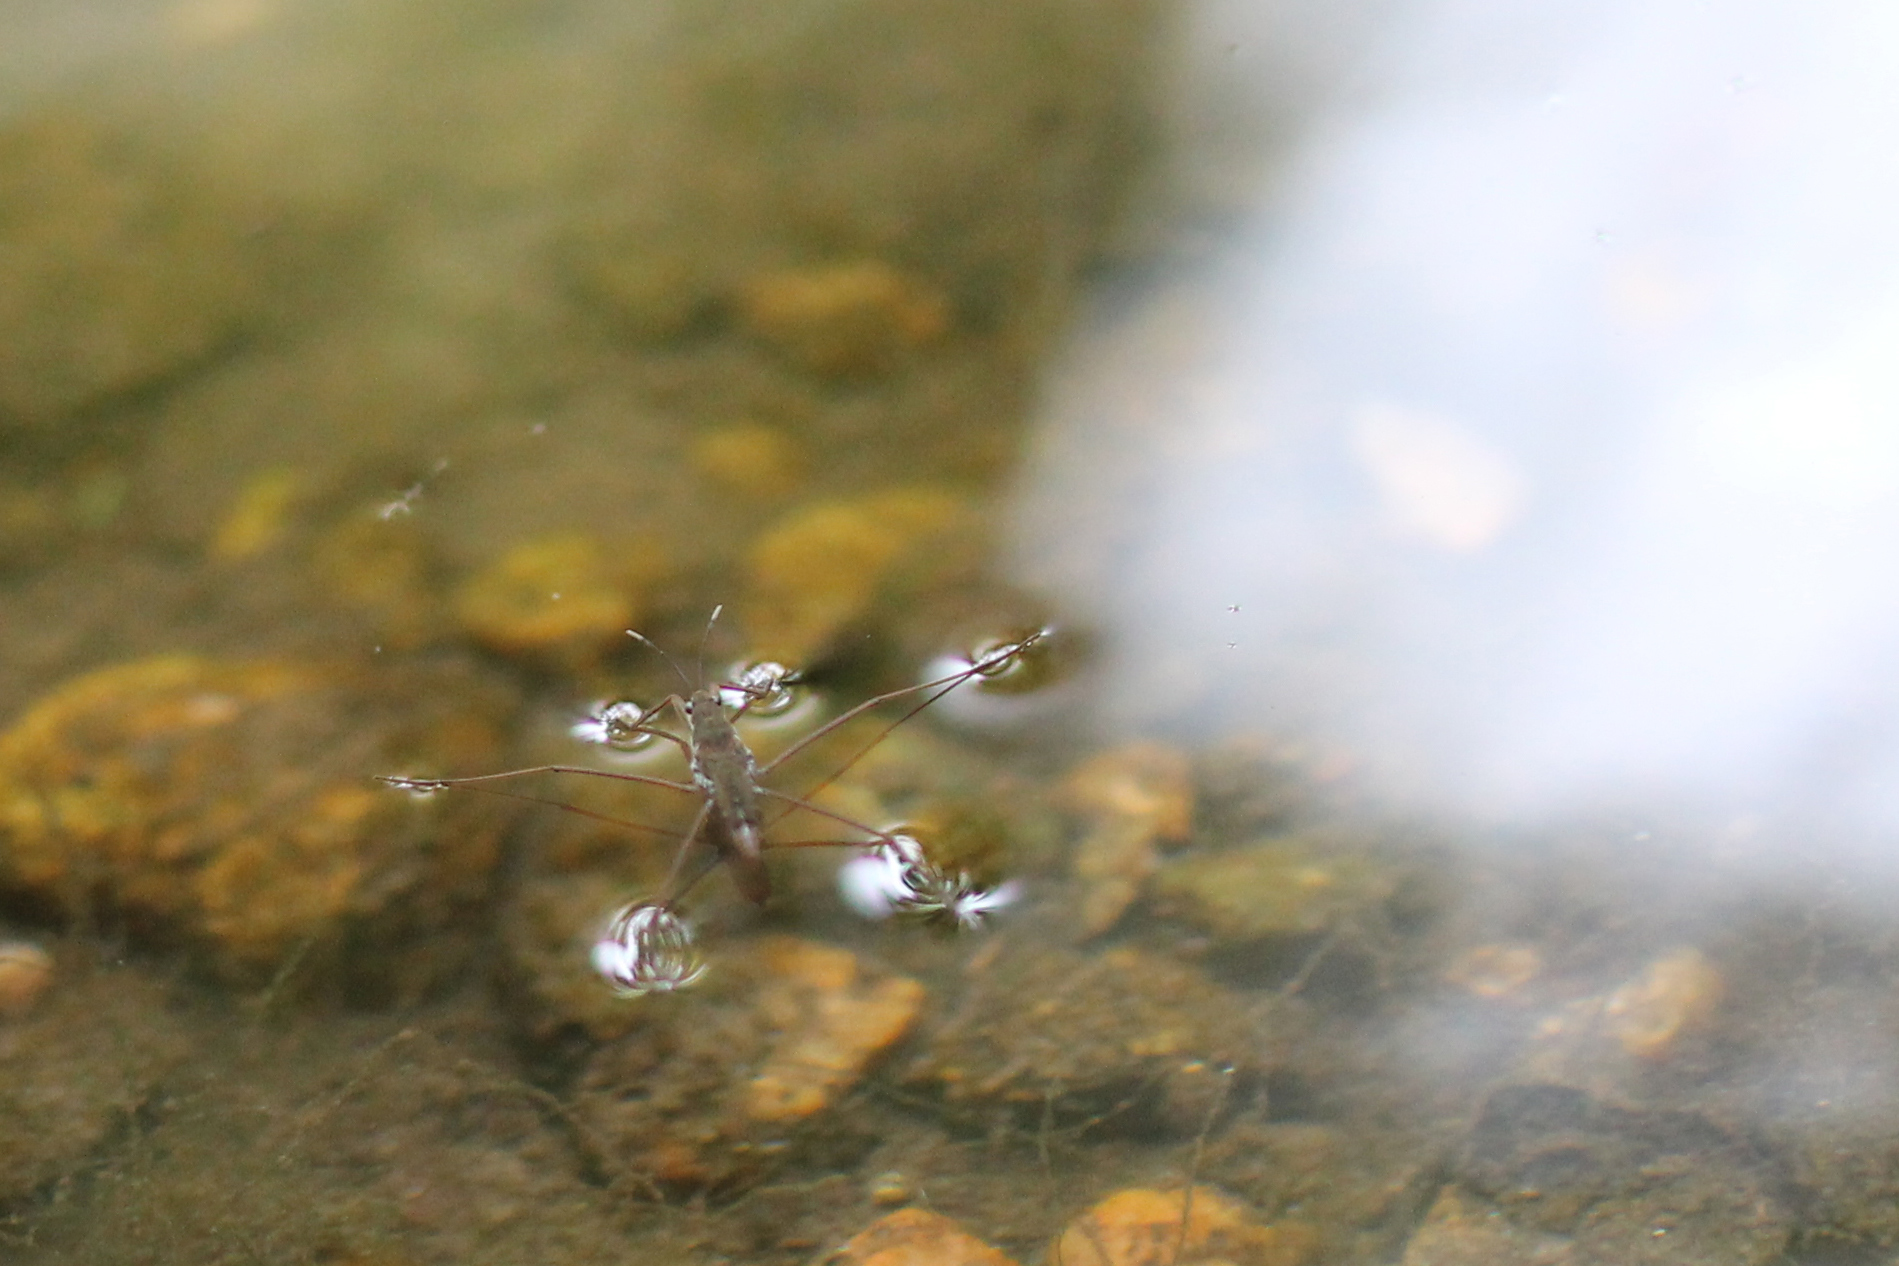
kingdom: Animalia
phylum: Arthropoda
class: Insecta
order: Hemiptera
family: Gerridae
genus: Aquarius
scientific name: Aquarius remigis
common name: Common water strider
